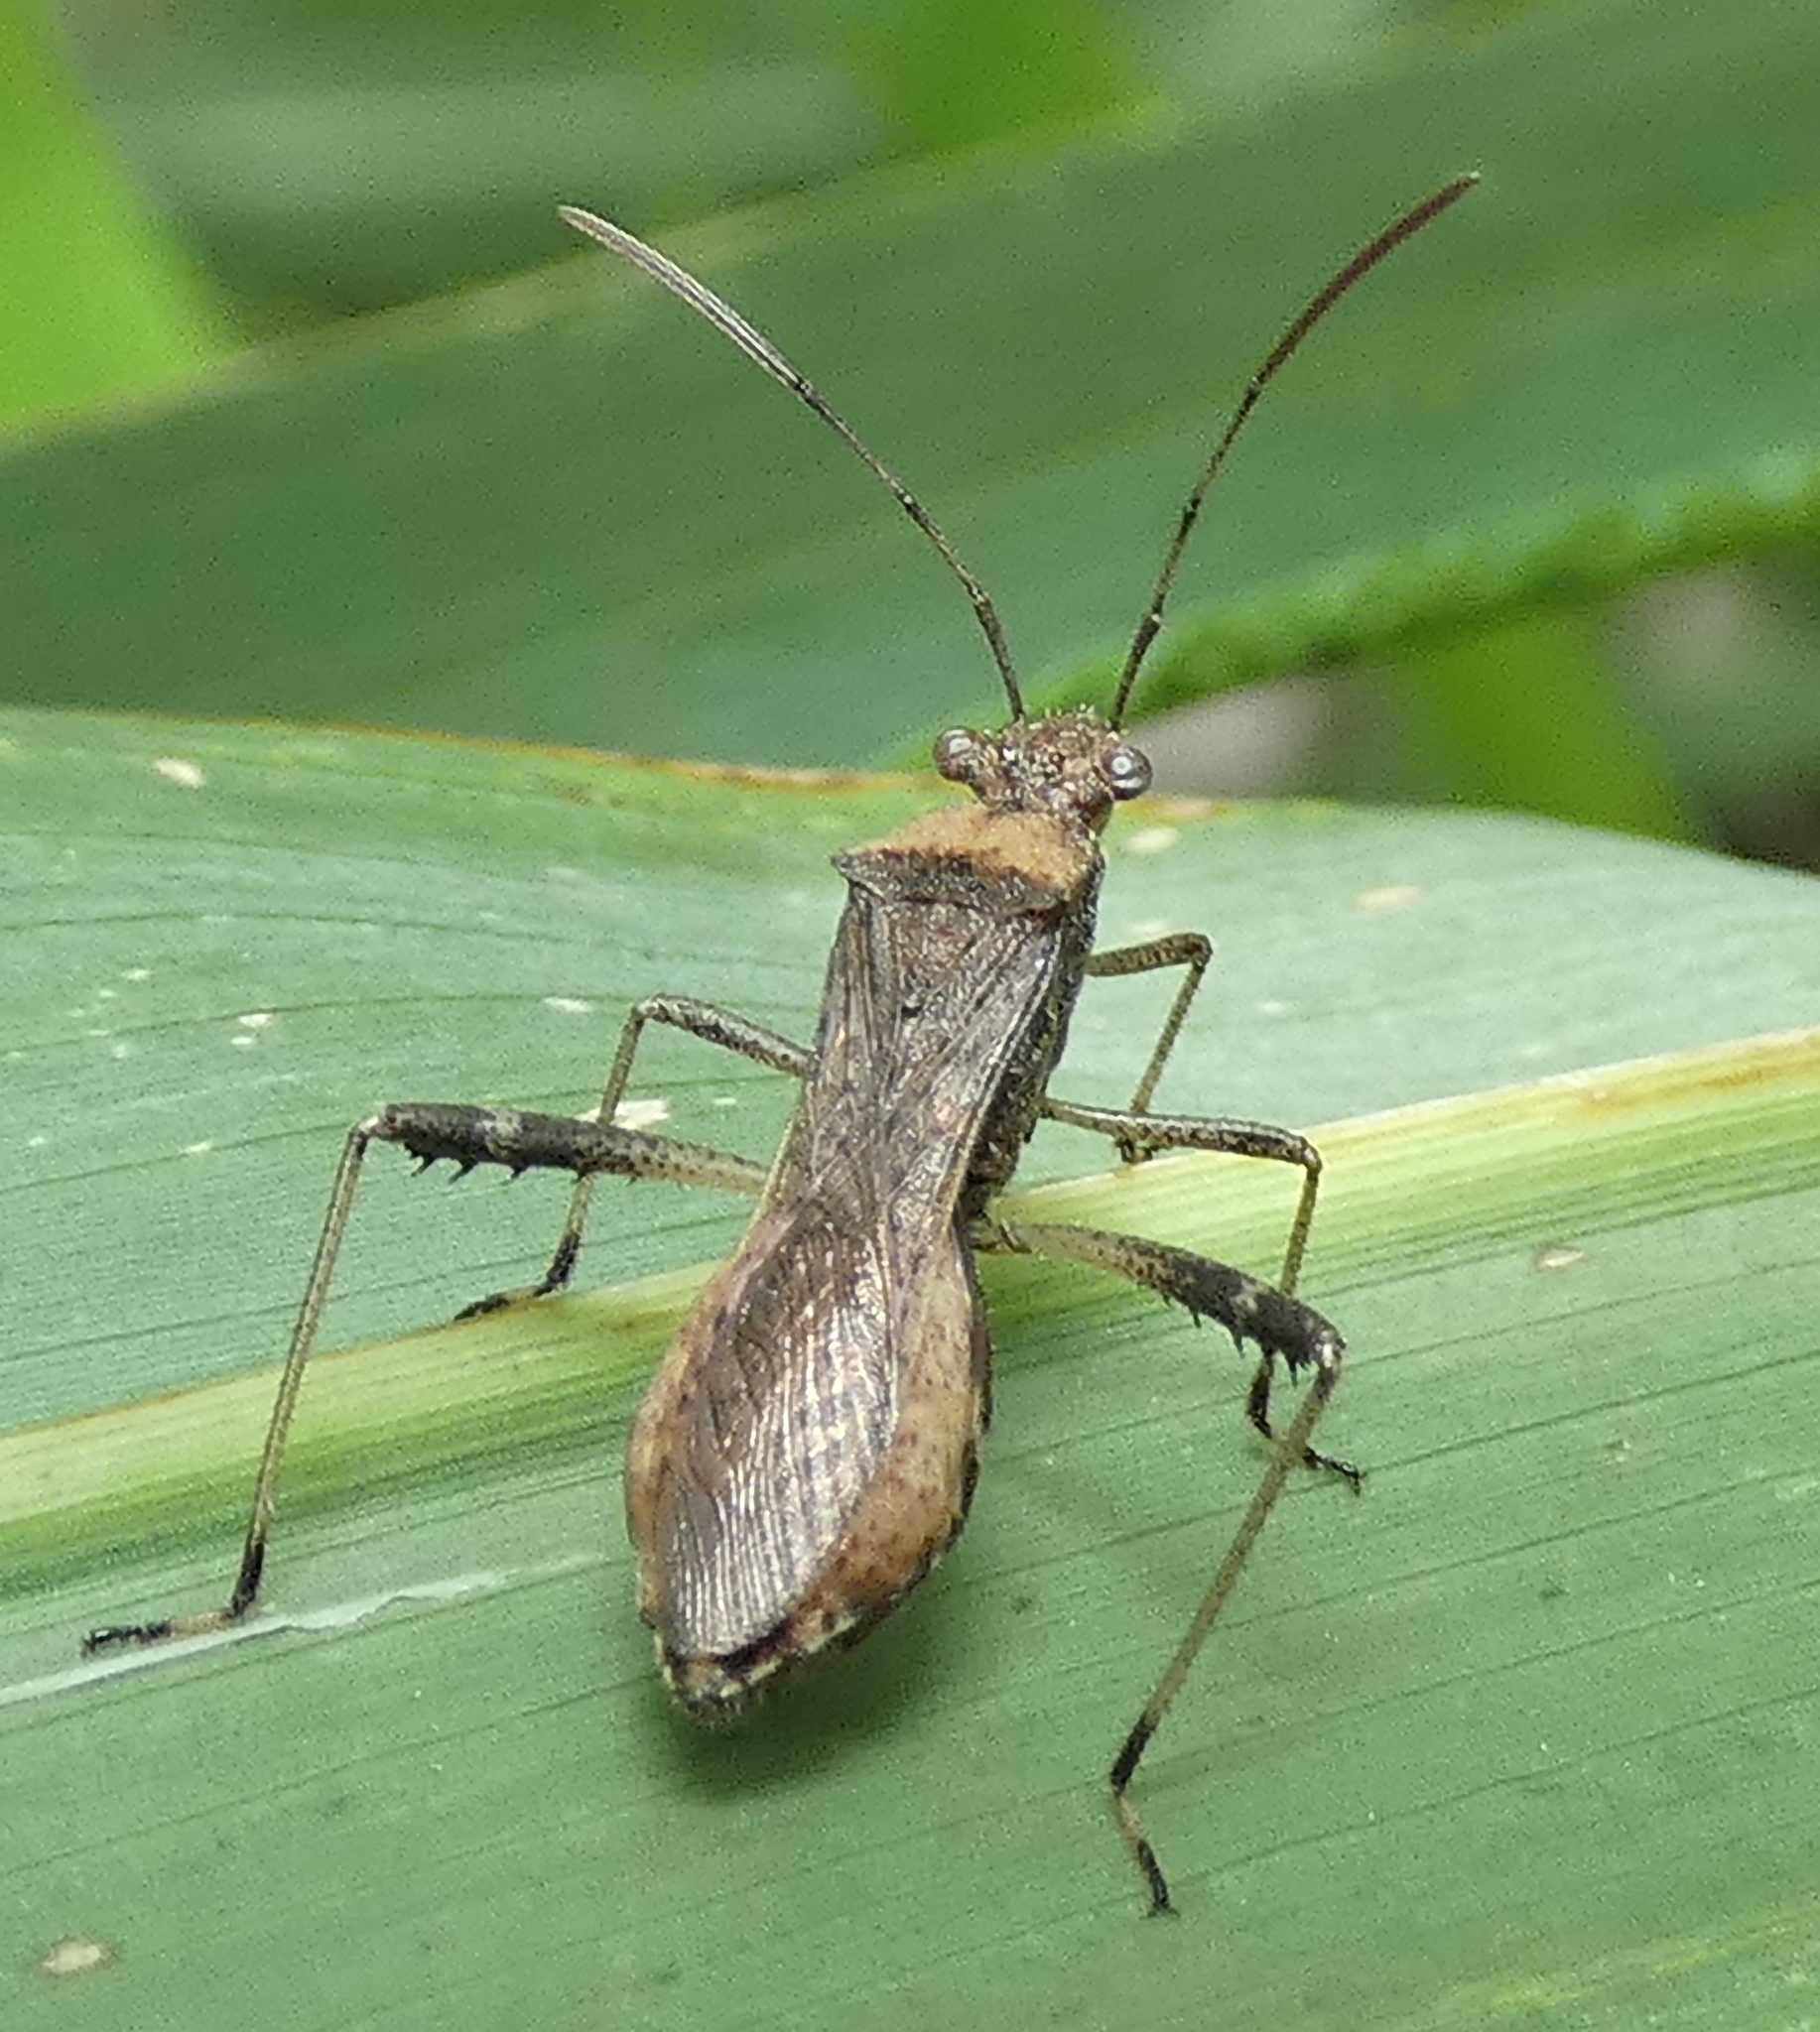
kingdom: Animalia
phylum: Arthropoda
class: Insecta
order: Hemiptera
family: Alydidae
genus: Neomegalotomus
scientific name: Neomegalotomus parvus
